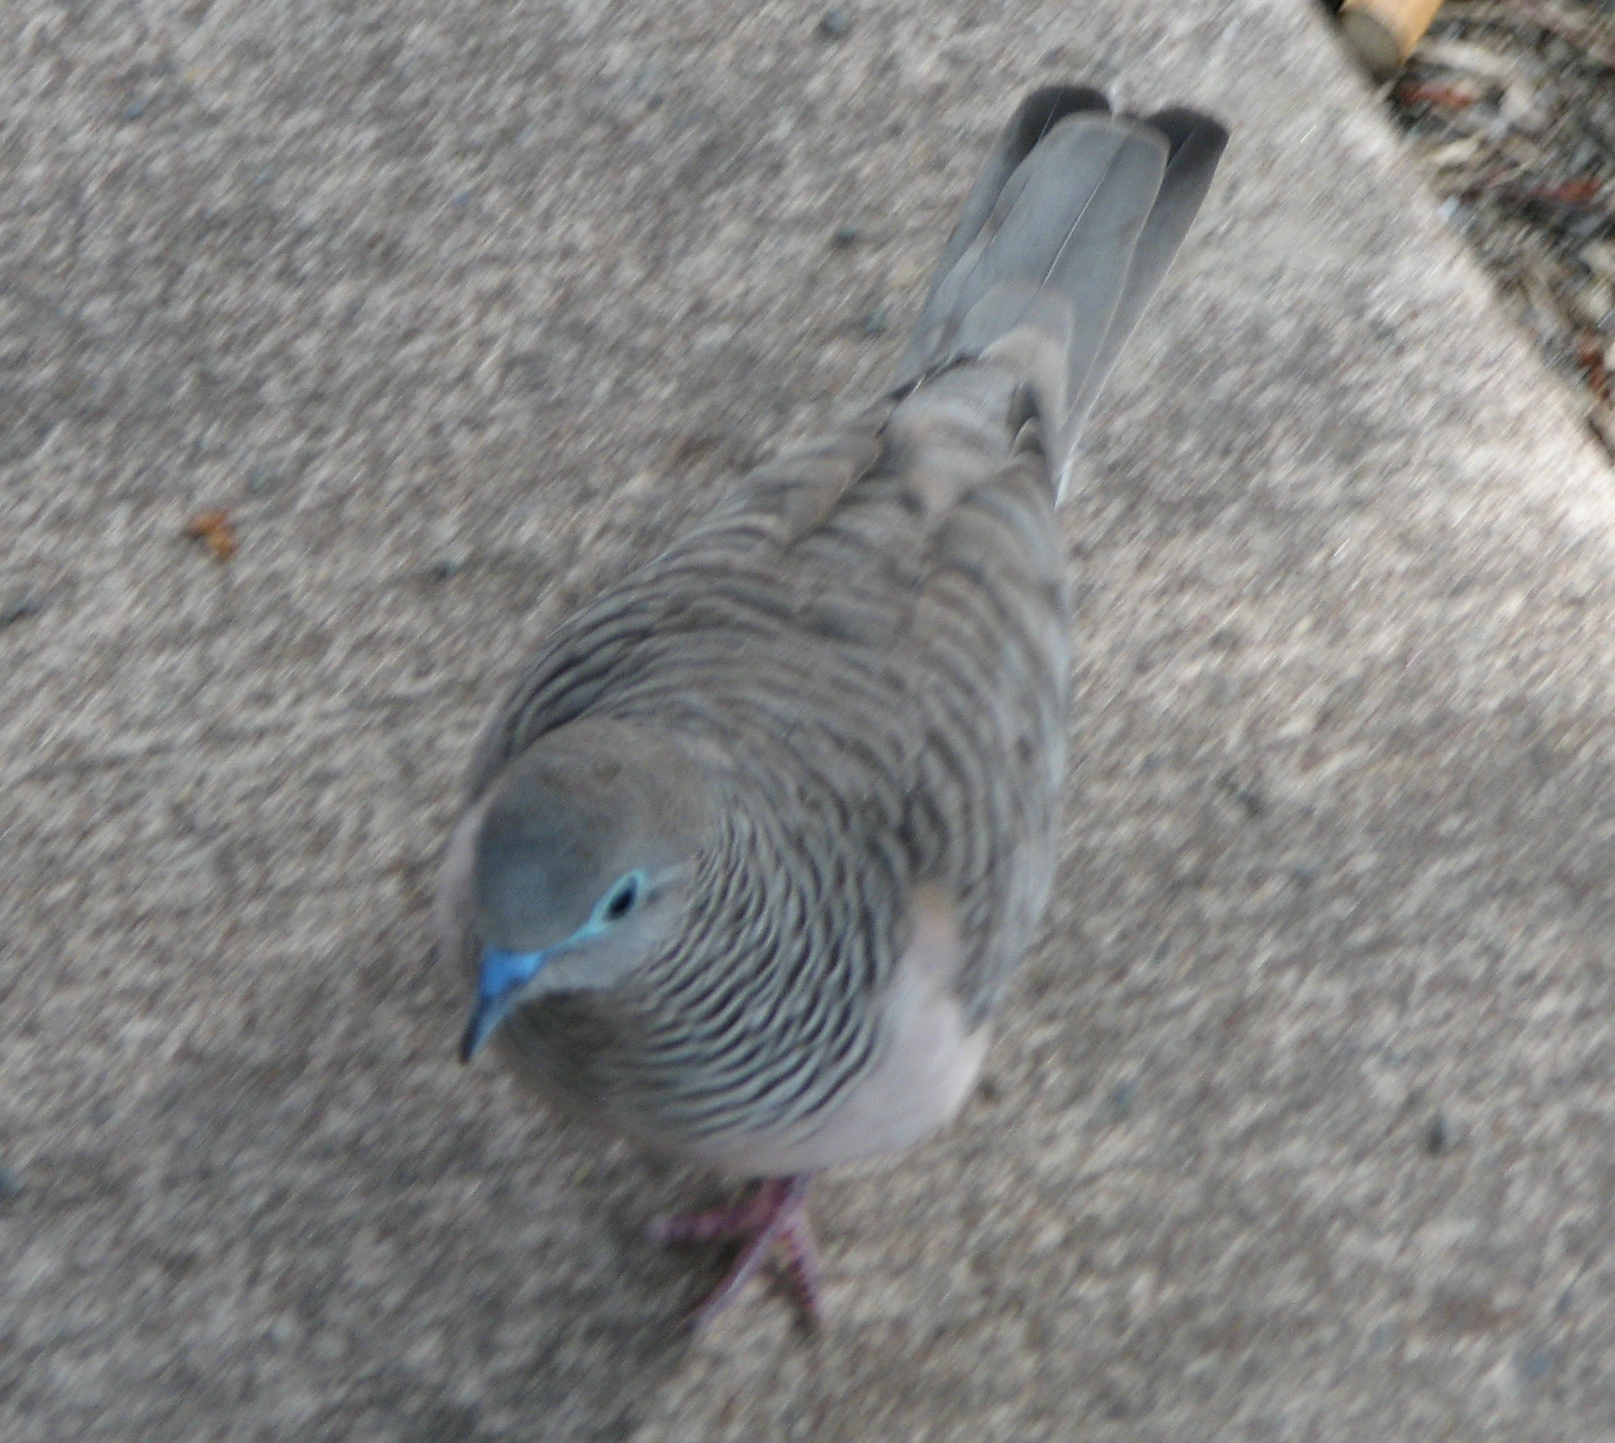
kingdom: Animalia
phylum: Chordata
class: Aves
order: Columbiformes
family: Columbidae
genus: Geopelia
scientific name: Geopelia placida
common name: Peaceful dove
